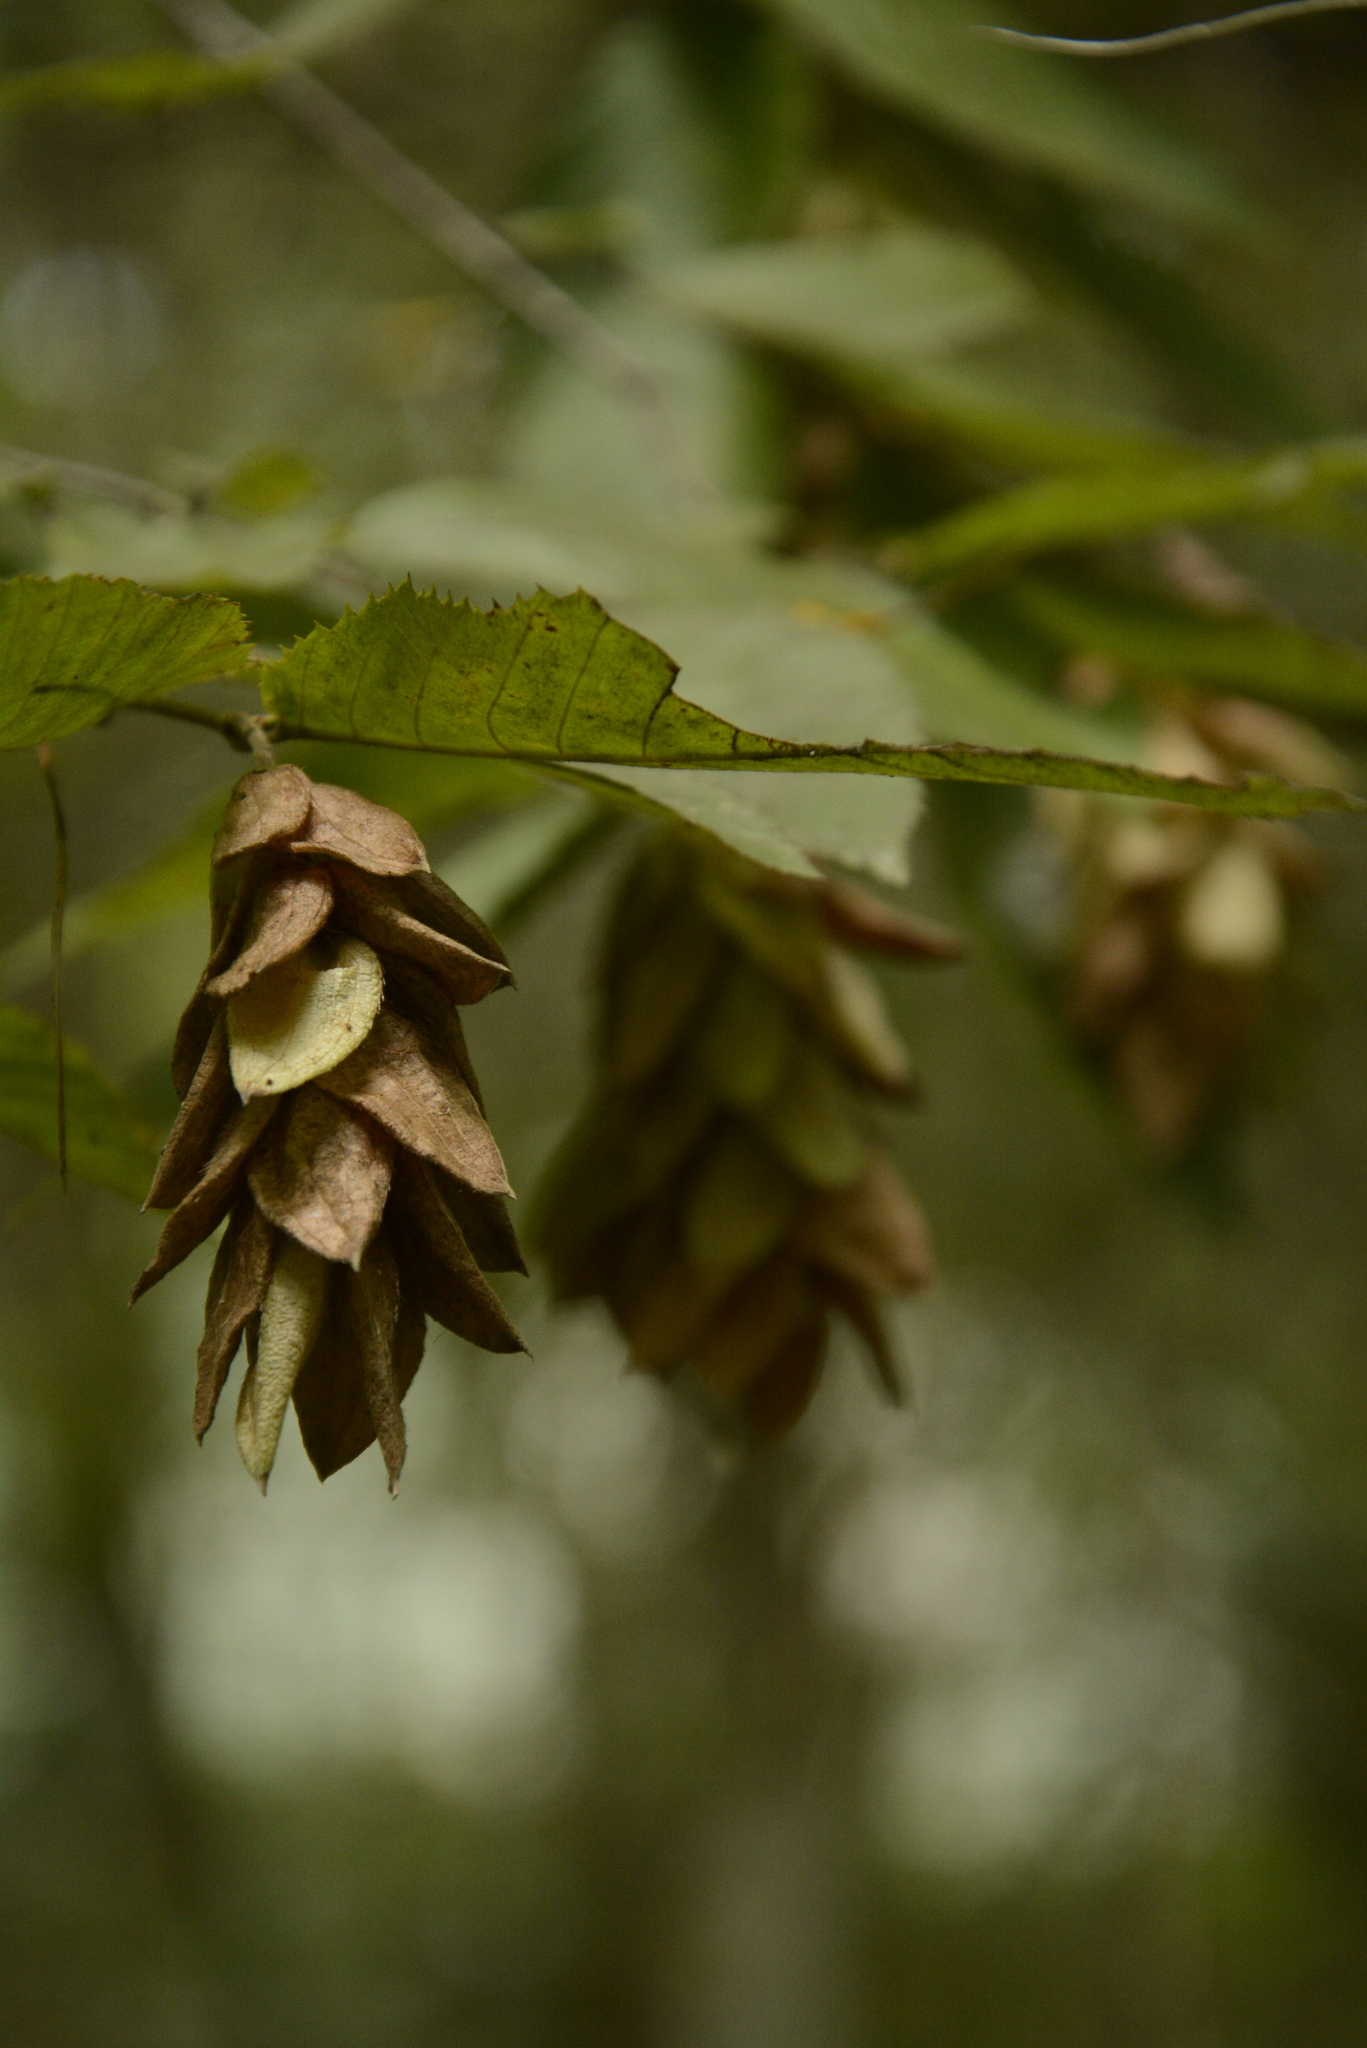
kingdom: Plantae
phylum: Tracheophyta
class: Magnoliopsida
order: Fagales
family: Betulaceae
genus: Ostrya
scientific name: Ostrya virginiana
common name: Ironwood
